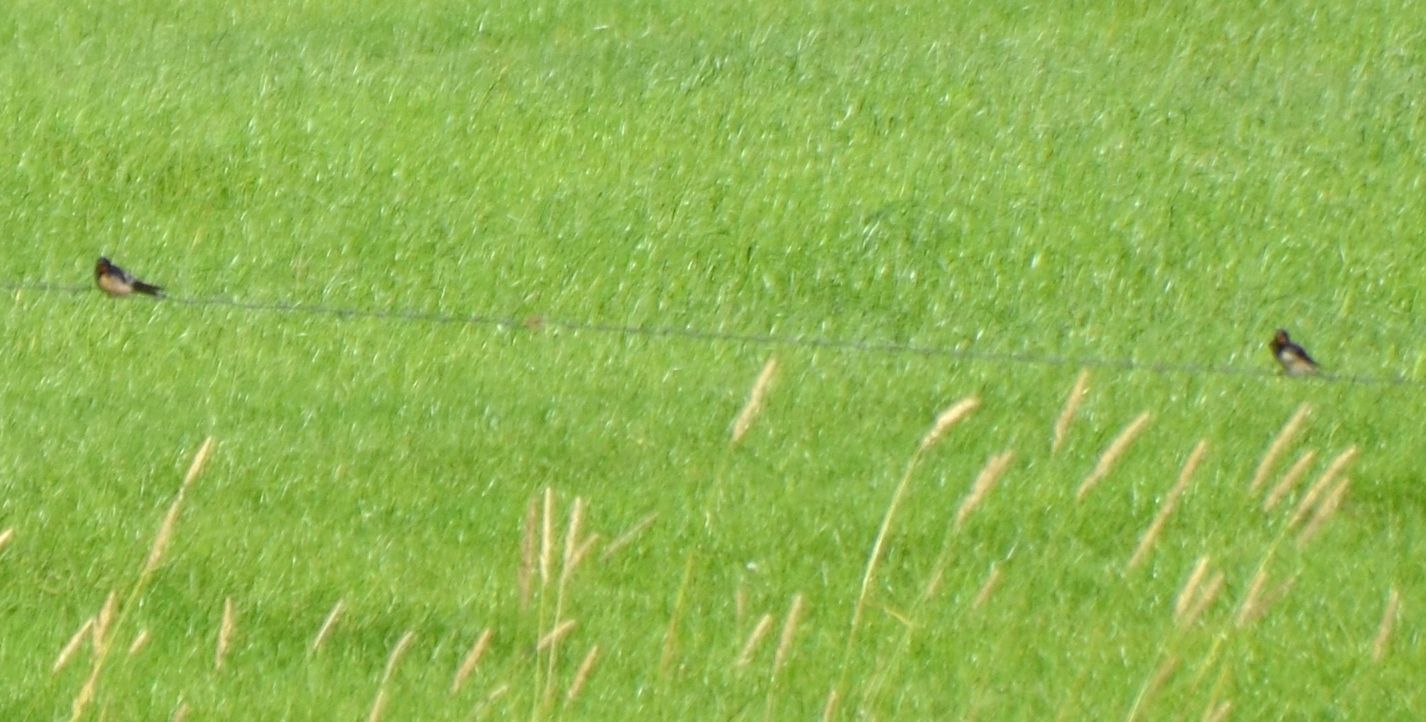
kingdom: Animalia
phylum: Chordata
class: Aves
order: Passeriformes
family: Hirundinidae
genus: Hirundo
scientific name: Hirundo rustica
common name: Barn swallow
